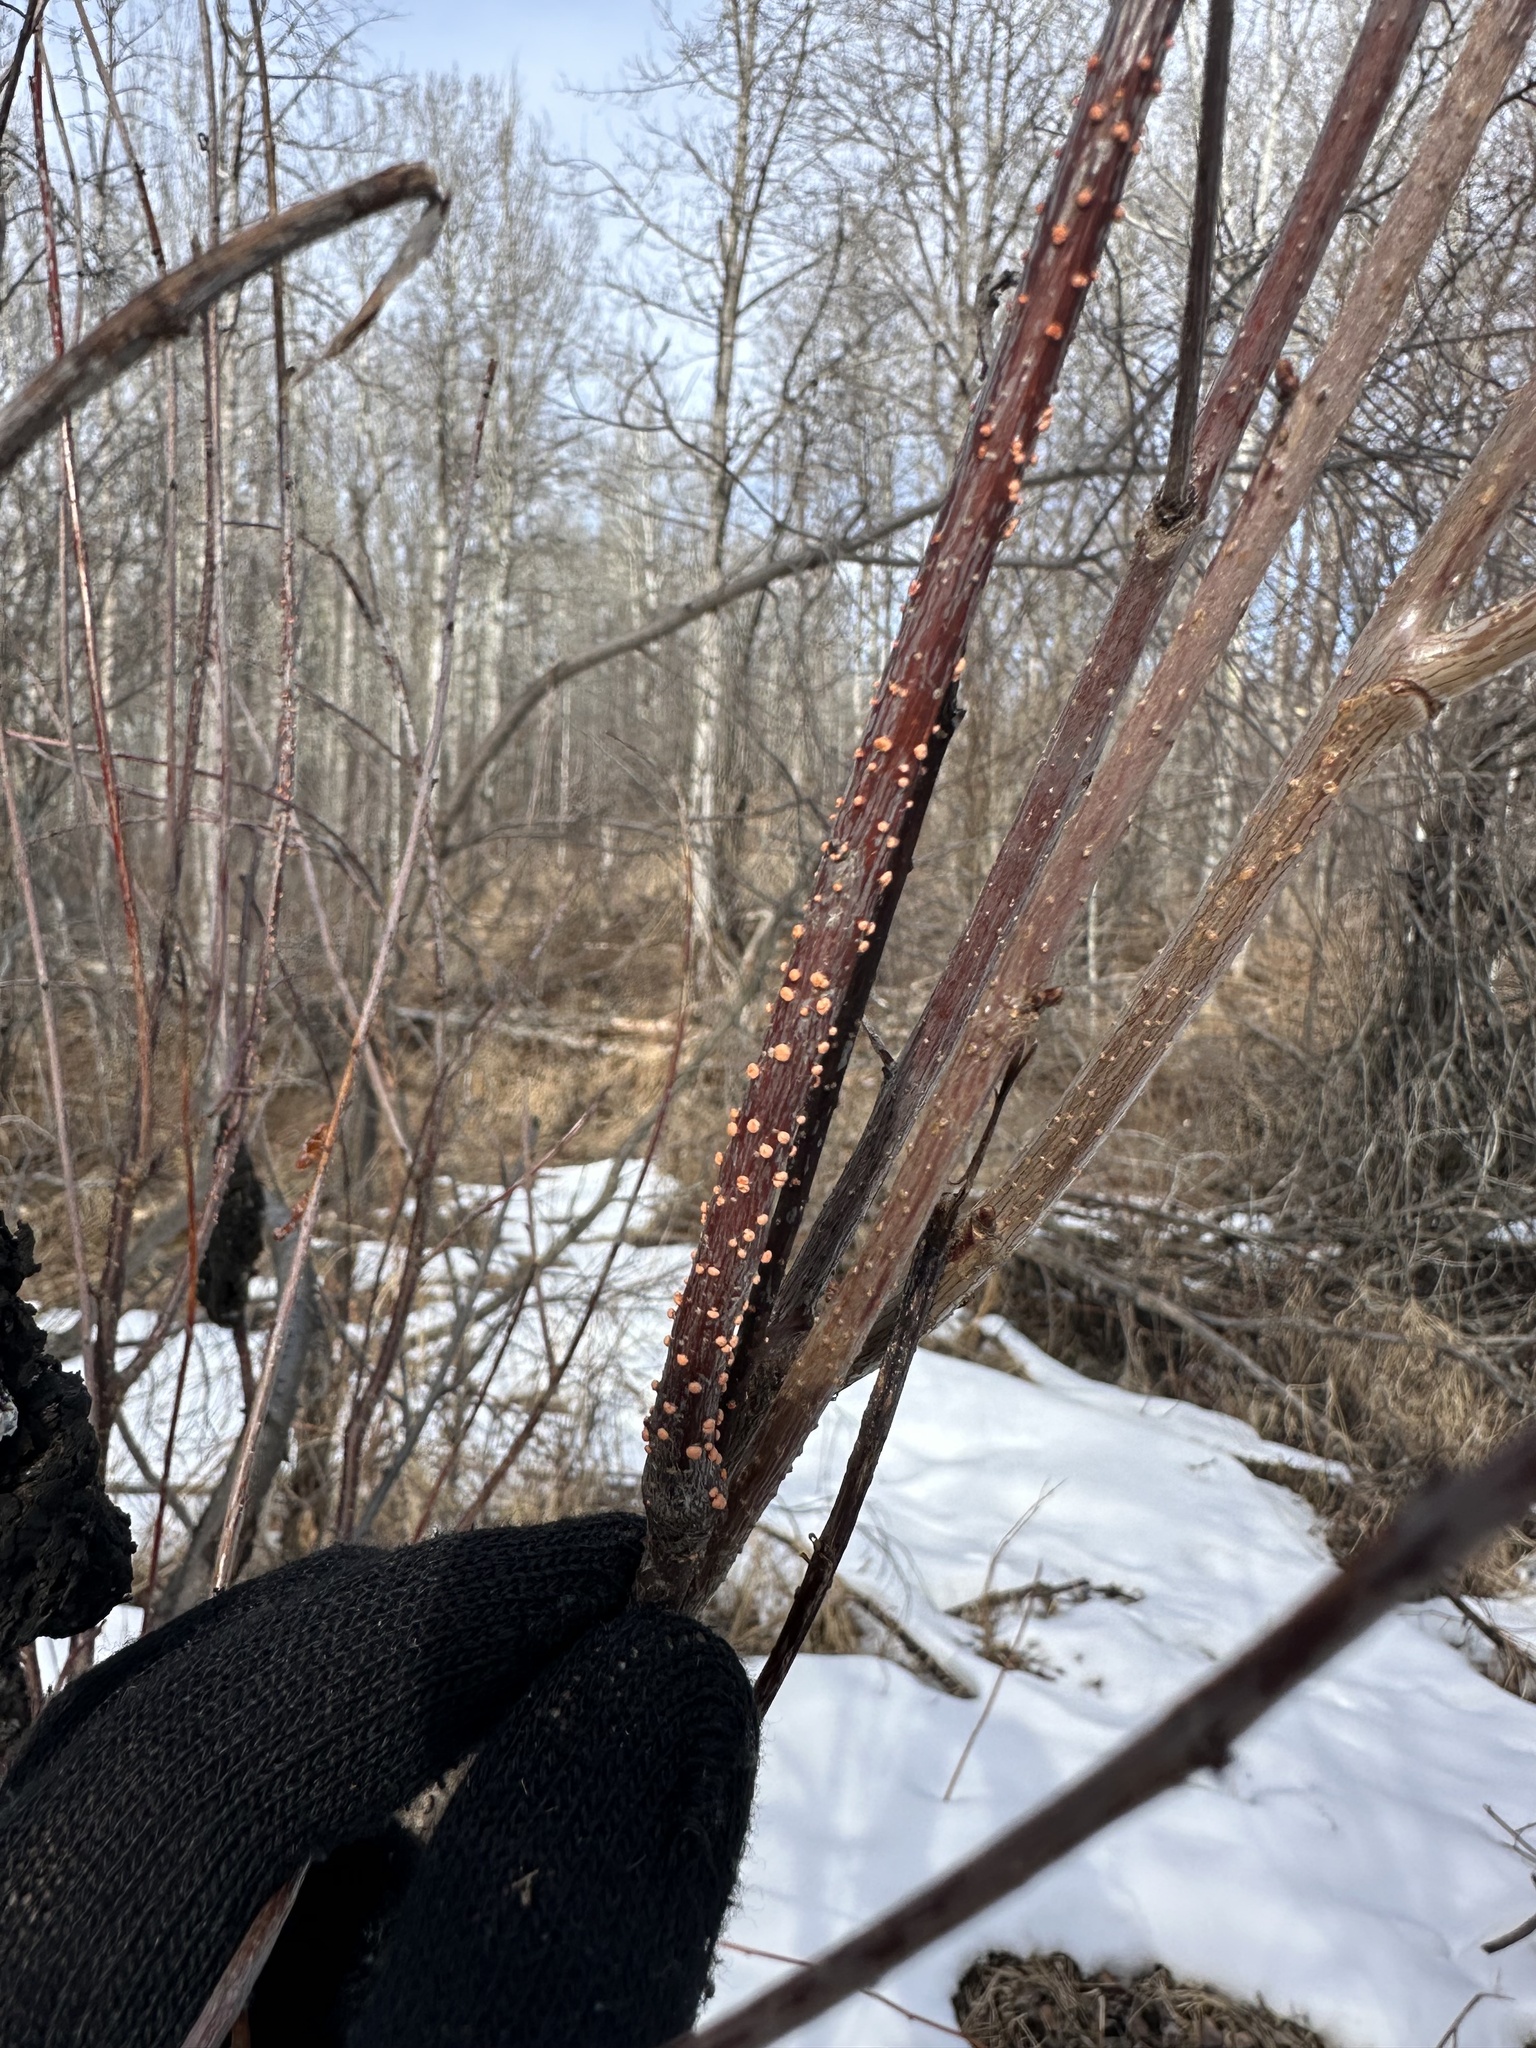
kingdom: Fungi
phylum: Ascomycota
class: Sordariomycetes
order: Hypocreales
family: Nectriaceae
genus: Nectria
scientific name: Nectria cinnabarina
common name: Coral spot
